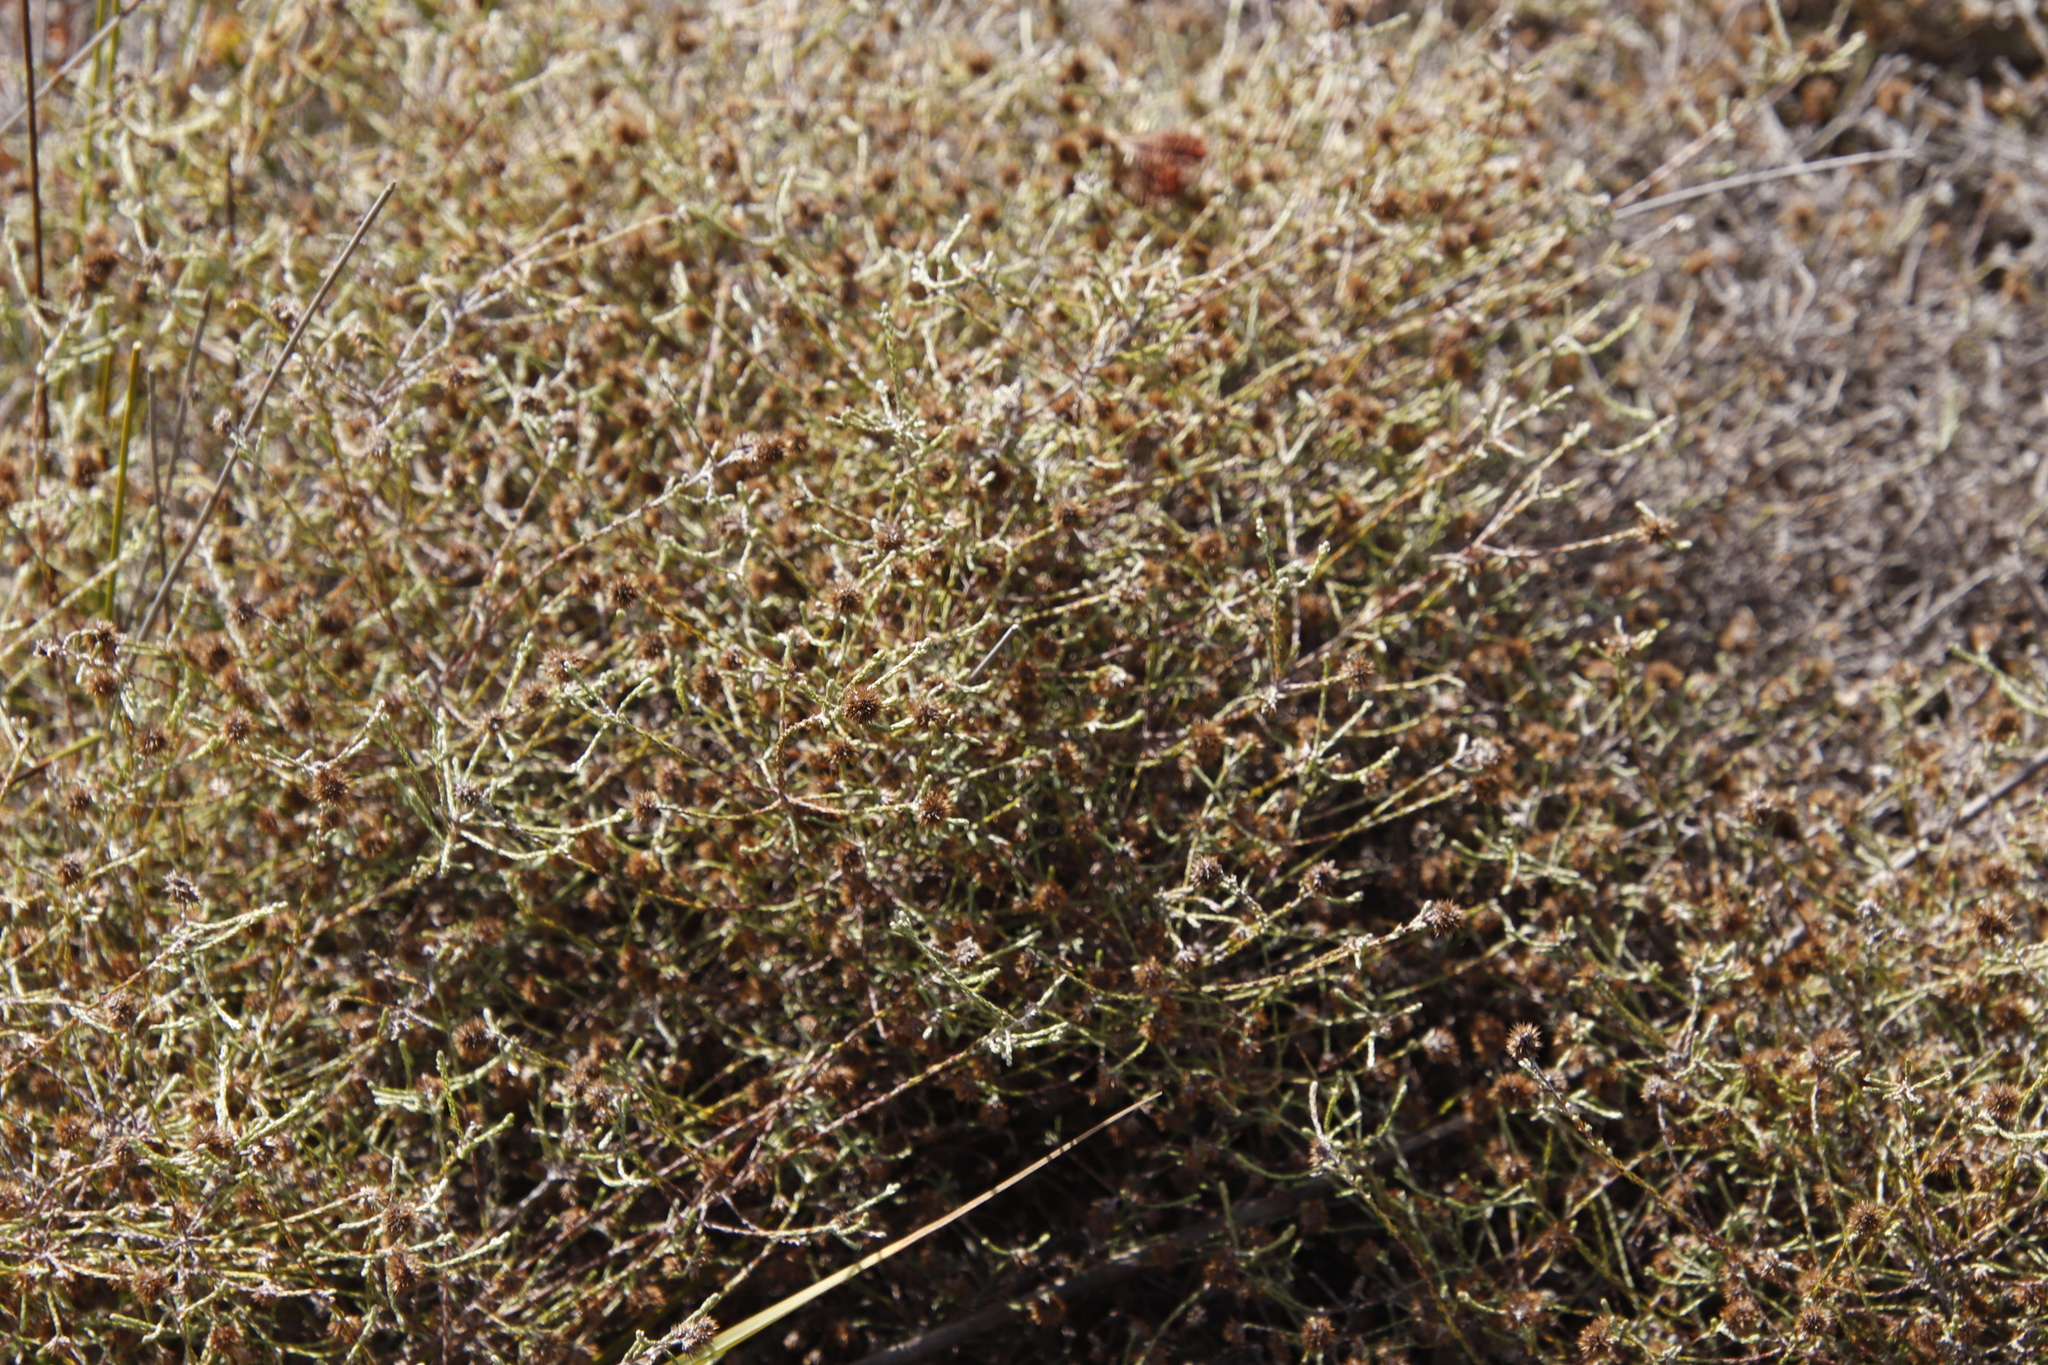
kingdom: Plantae
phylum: Tracheophyta
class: Magnoliopsida
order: Asterales
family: Asteraceae
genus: Stoebe
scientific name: Stoebe schultzii
